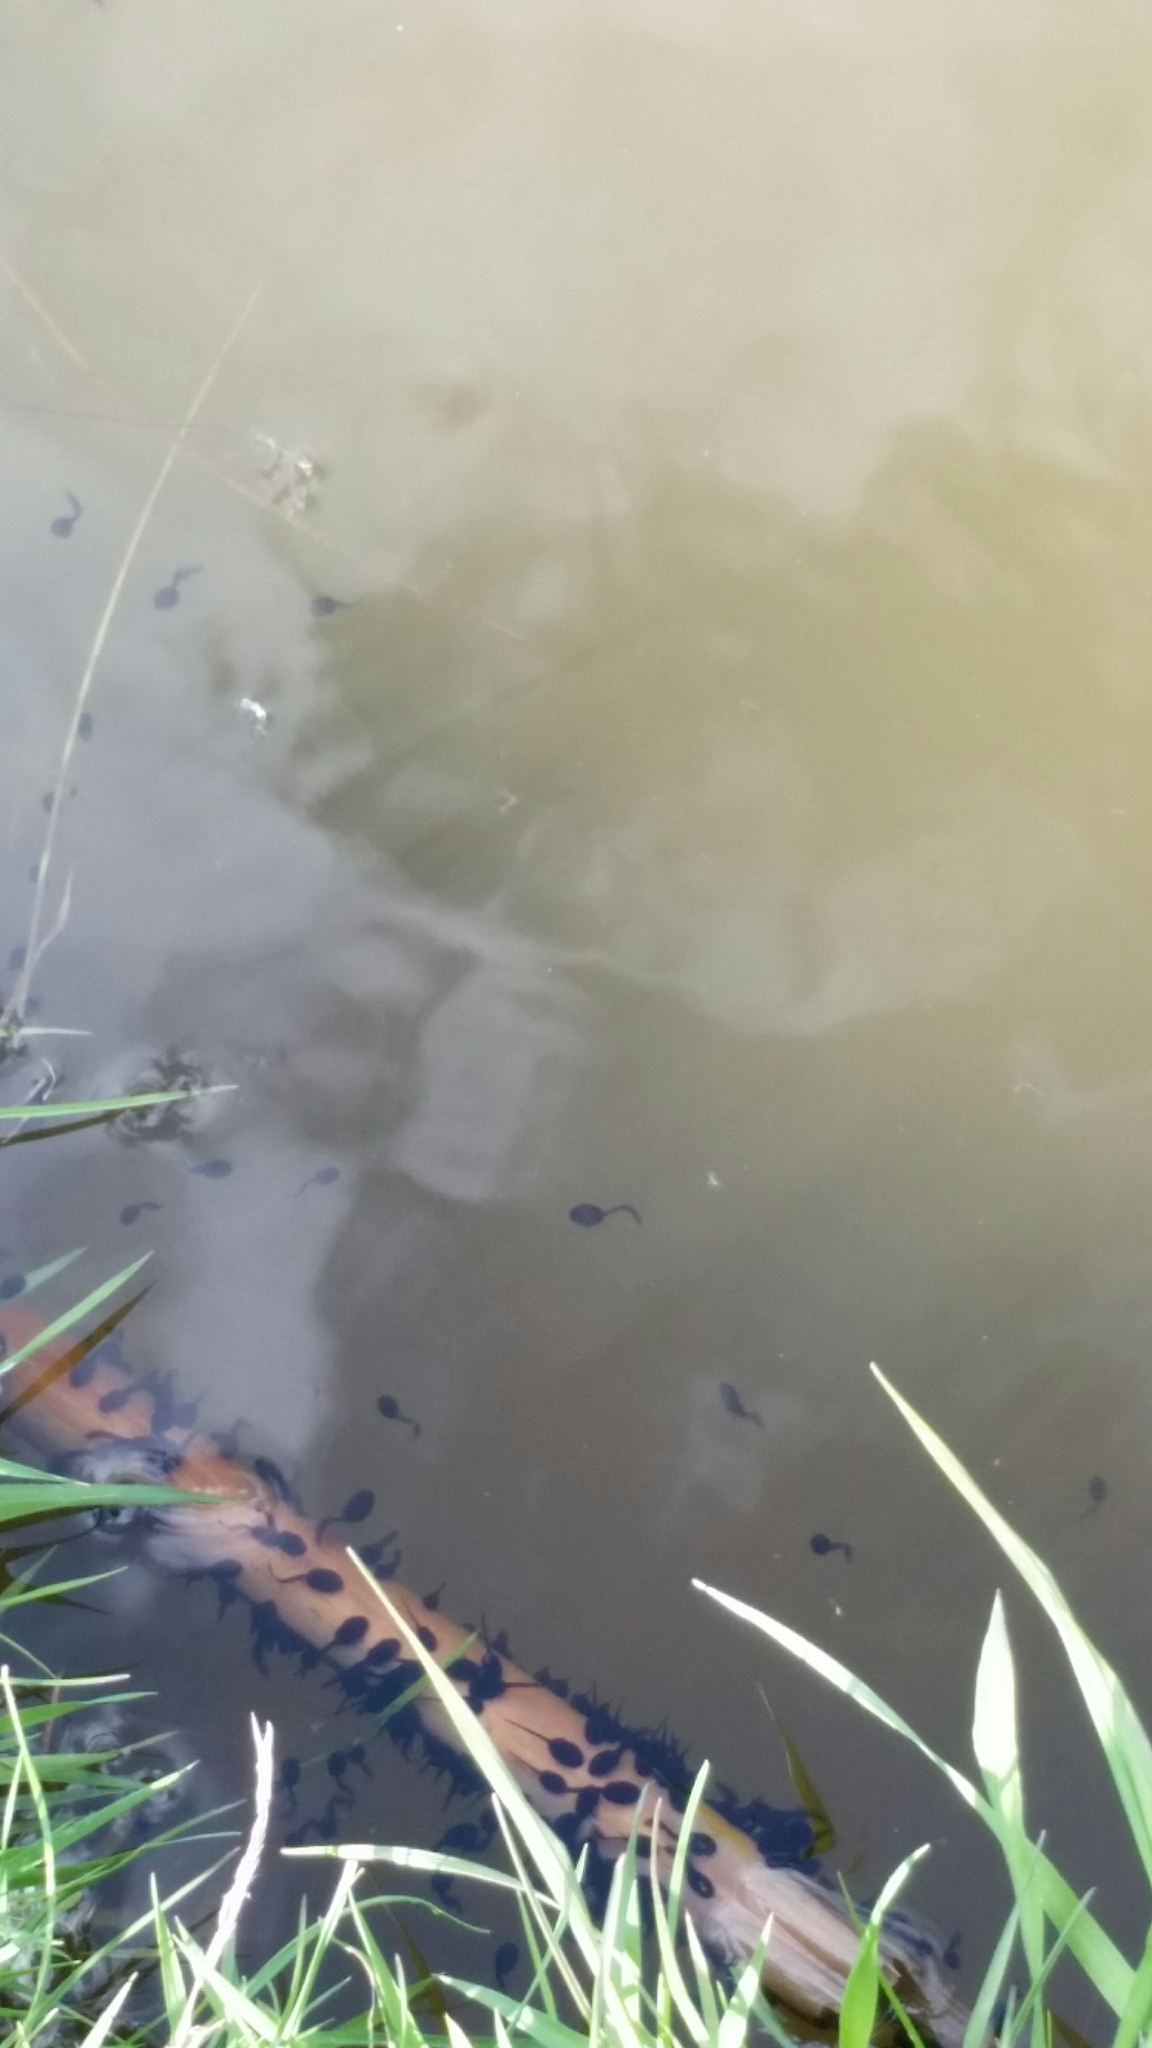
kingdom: Animalia
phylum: Chordata
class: Amphibia
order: Anura
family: Ranidae
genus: Rana
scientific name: Rana temporaria
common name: Common frog
